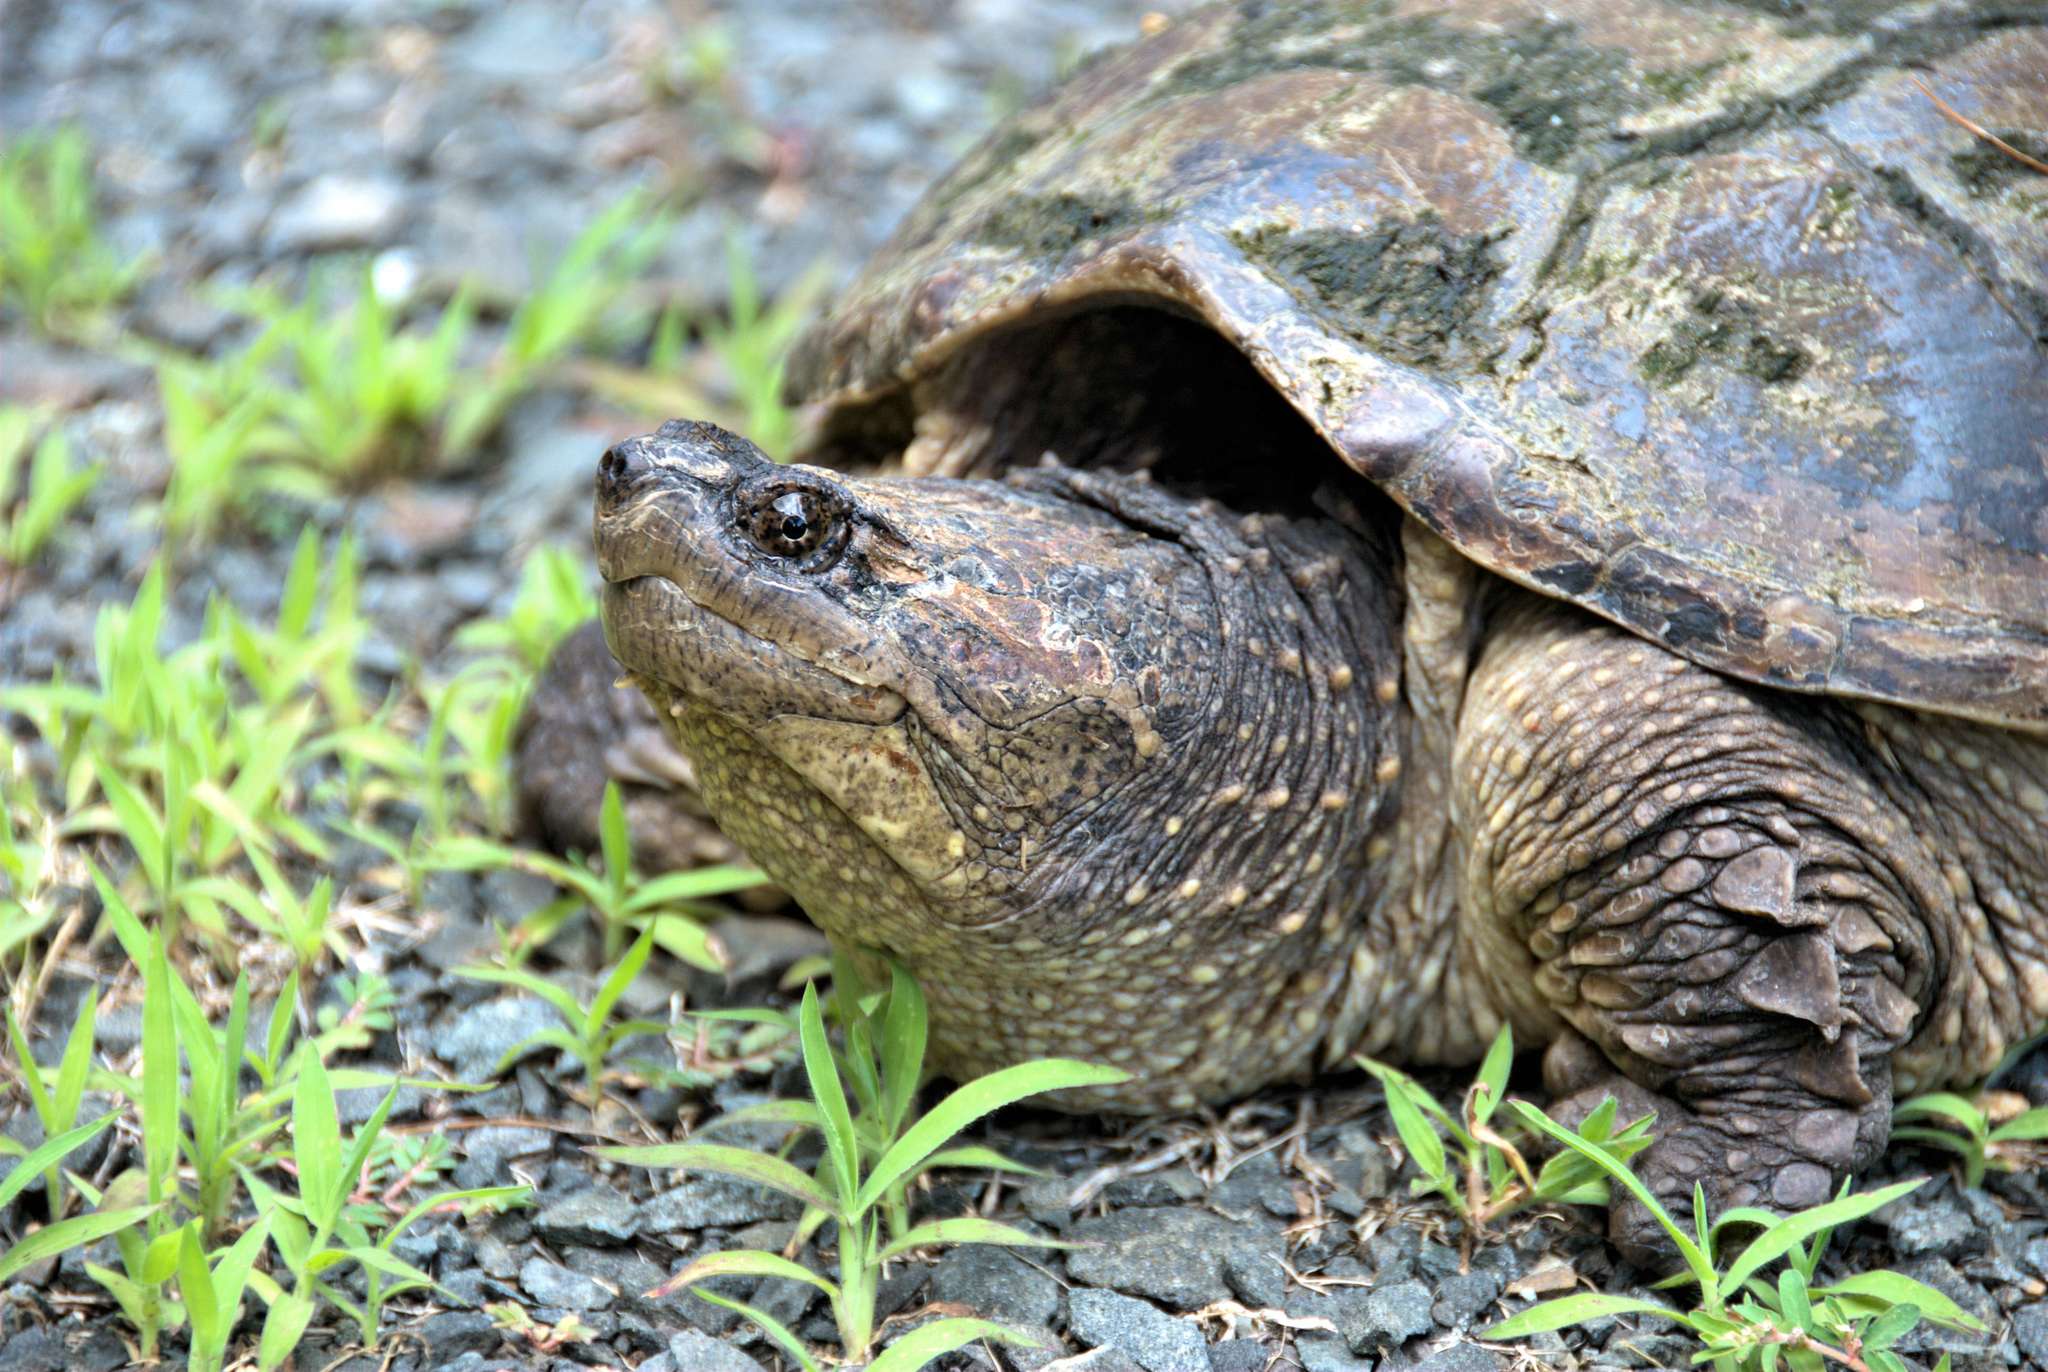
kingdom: Animalia
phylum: Chordata
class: Testudines
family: Chelydridae
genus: Chelydra
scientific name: Chelydra serpentina
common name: Common snapping turtle
